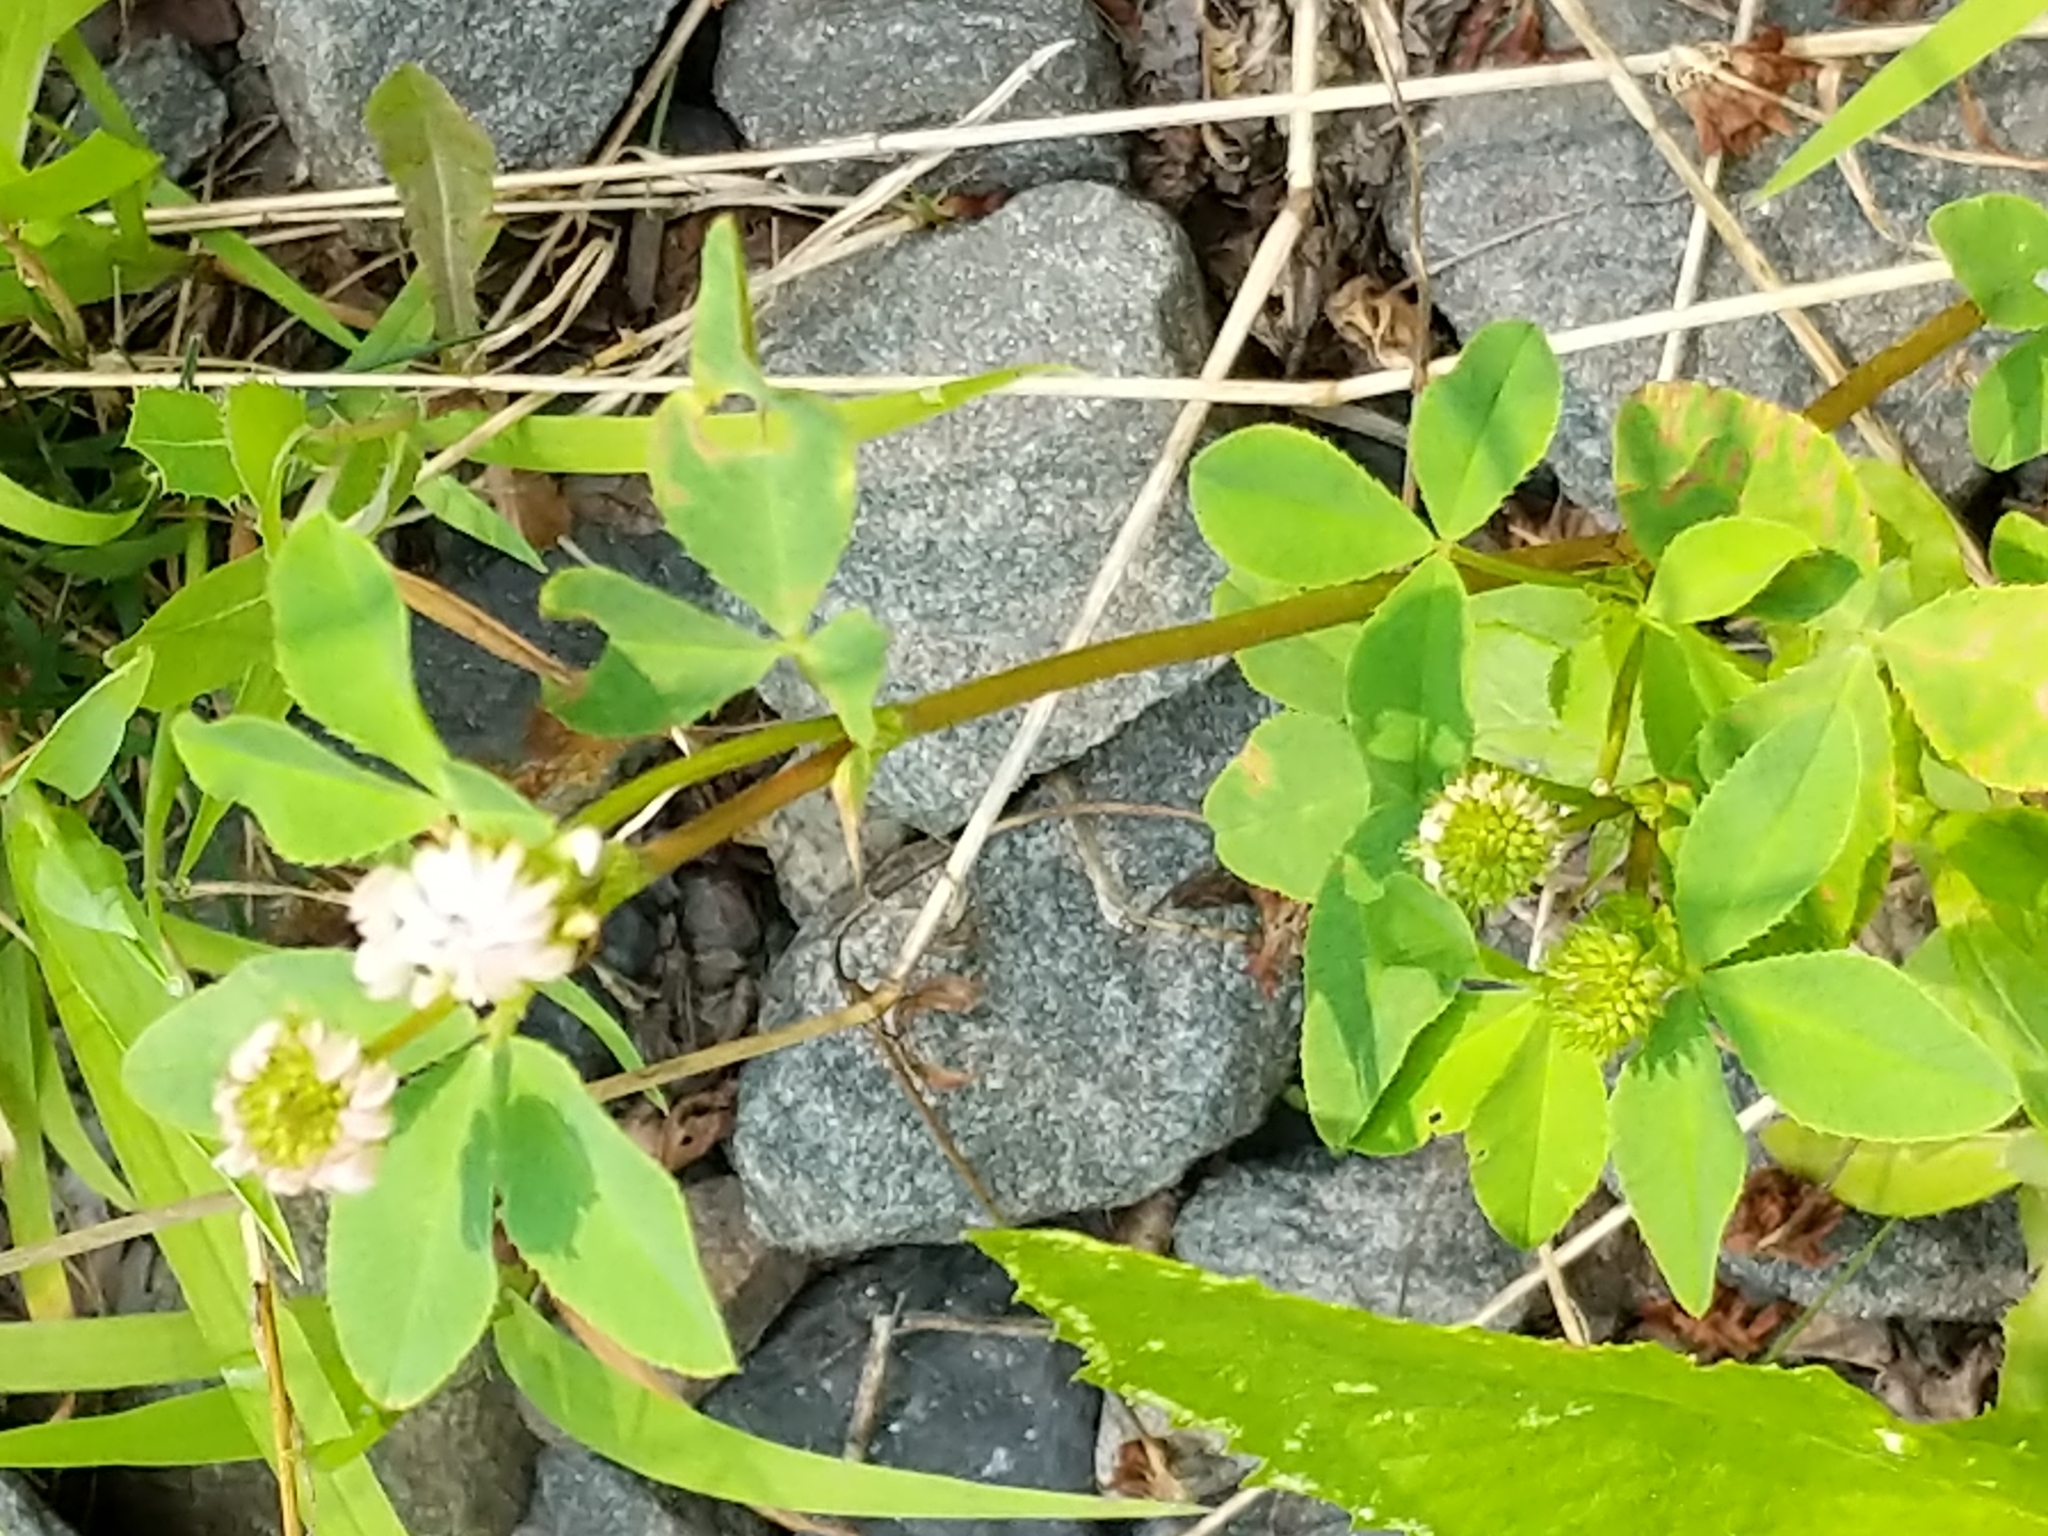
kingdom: Plantae
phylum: Tracheophyta
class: Magnoliopsida
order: Fabales
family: Fabaceae
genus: Trifolium
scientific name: Trifolium hybridum
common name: Alsike clover
